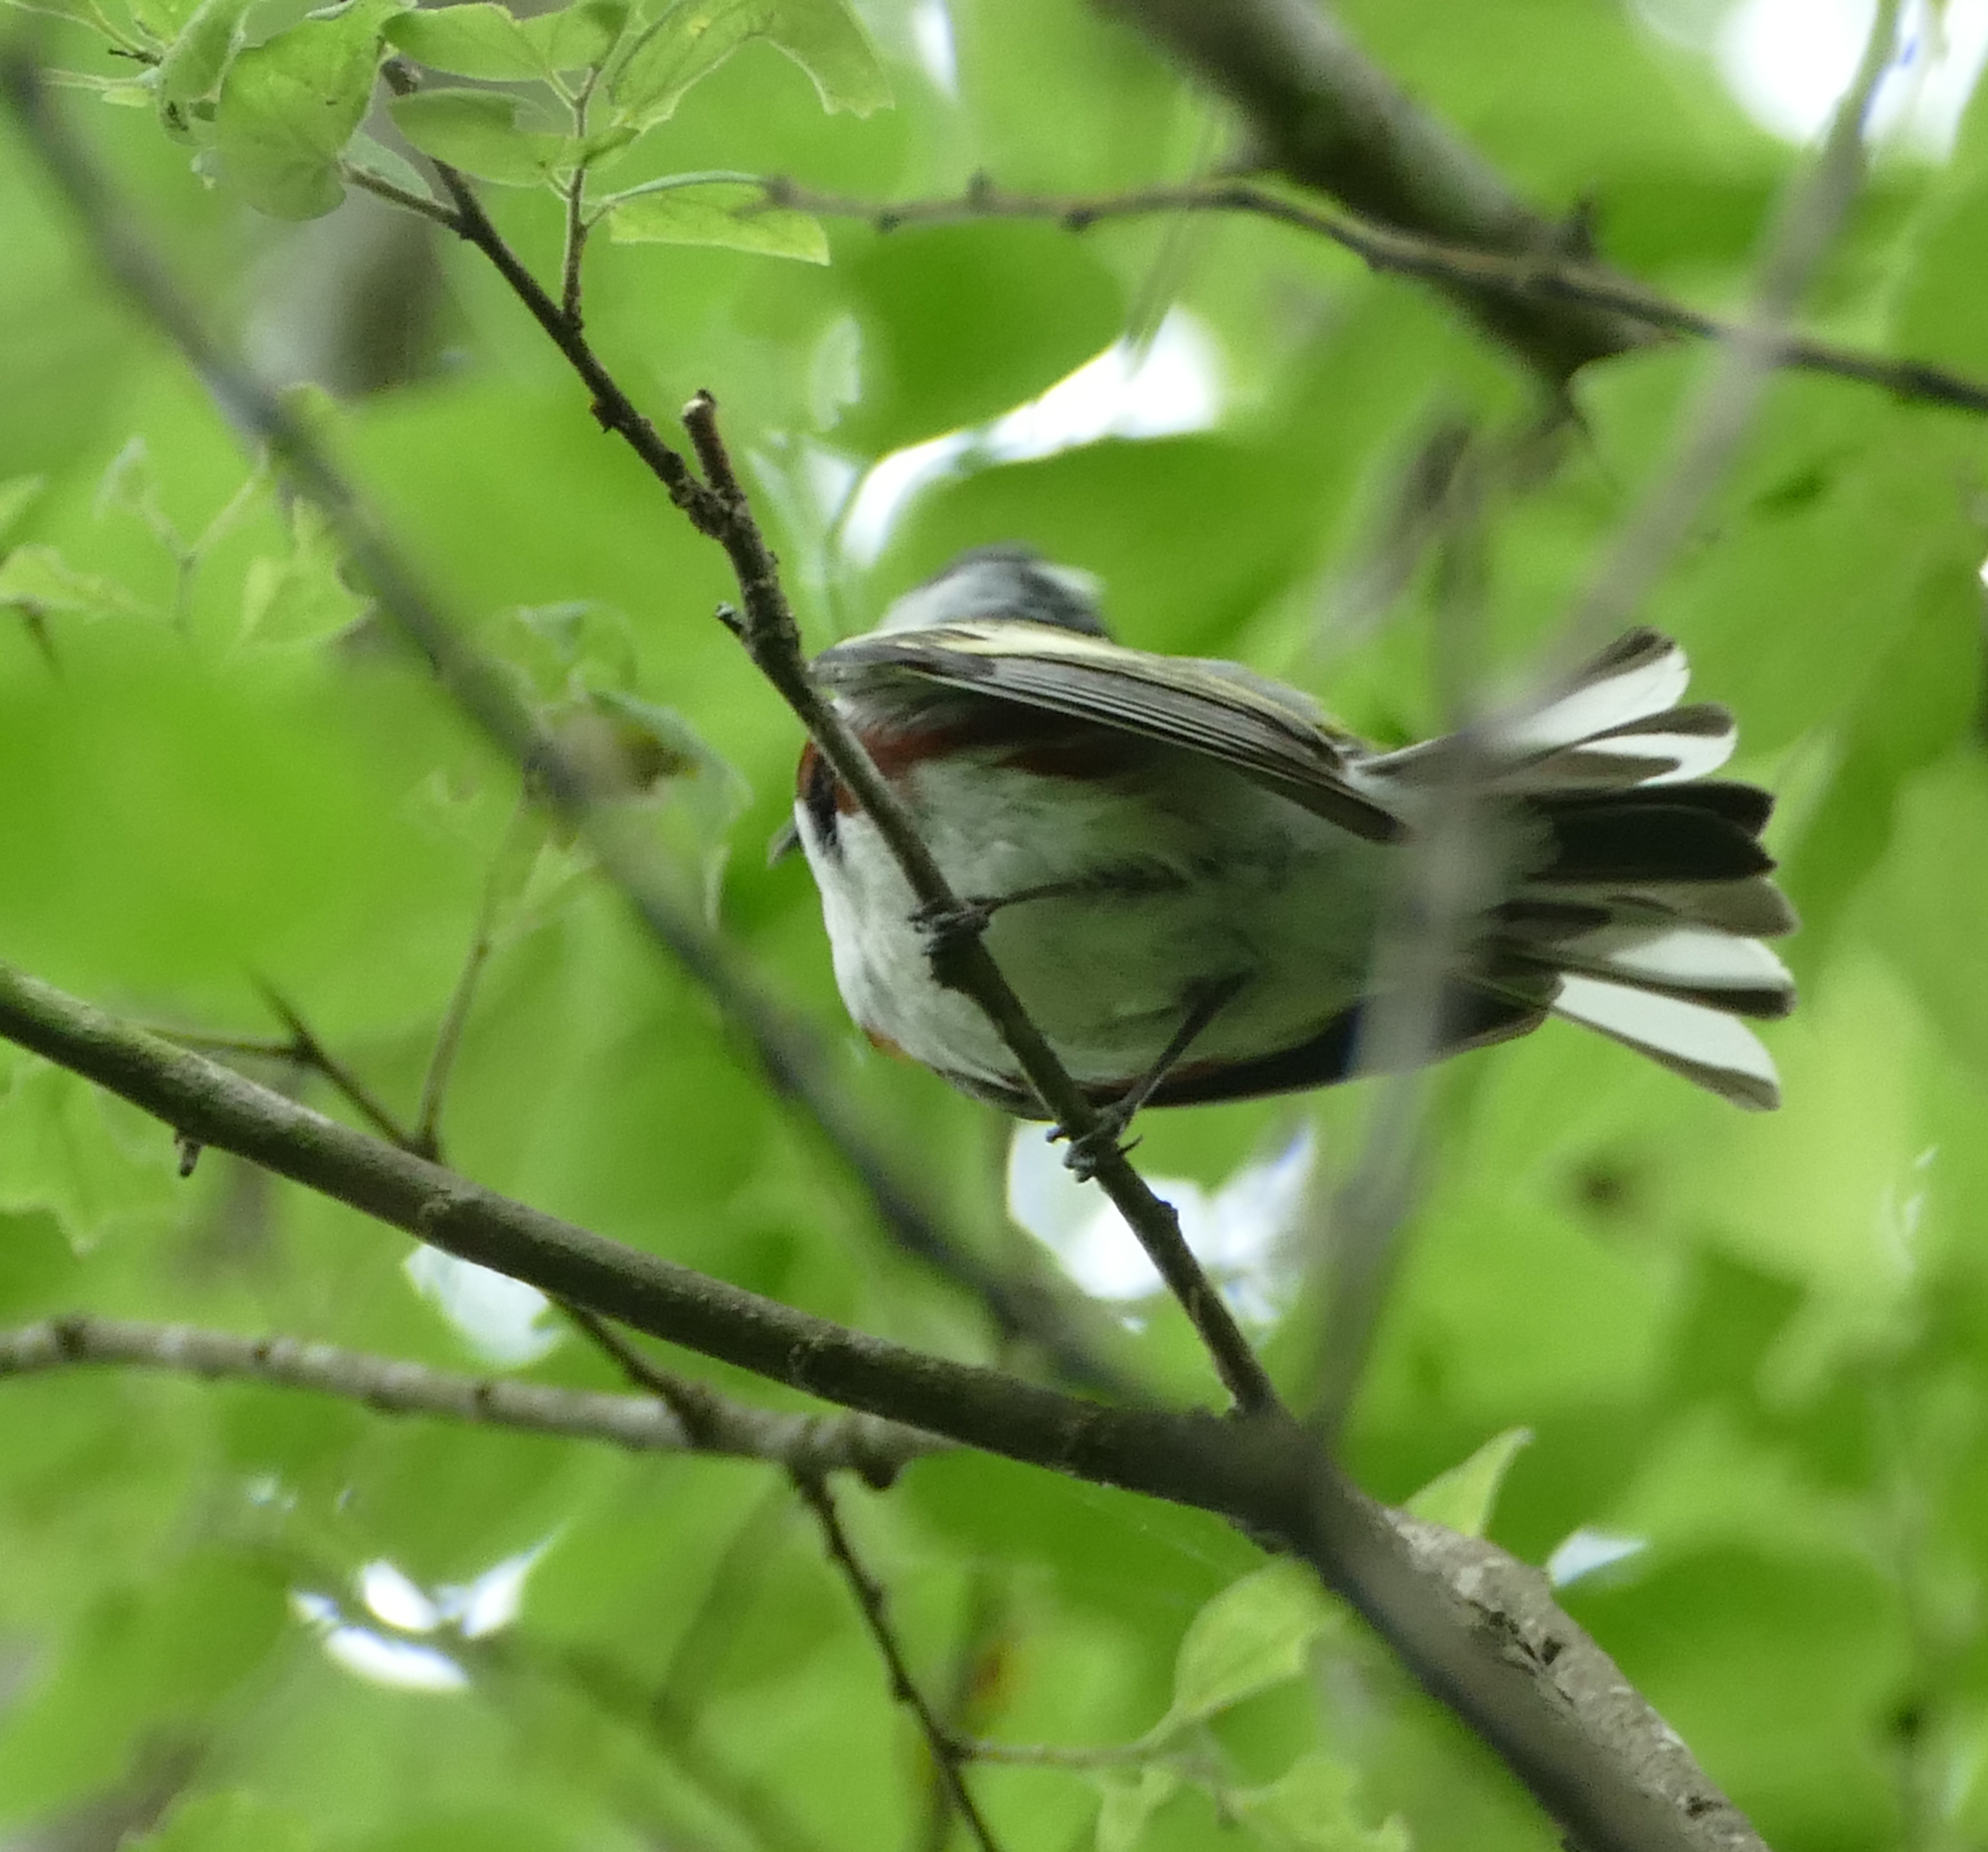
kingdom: Animalia
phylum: Chordata
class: Aves
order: Passeriformes
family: Parulidae
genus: Setophaga
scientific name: Setophaga pensylvanica
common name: Chestnut-sided warbler
